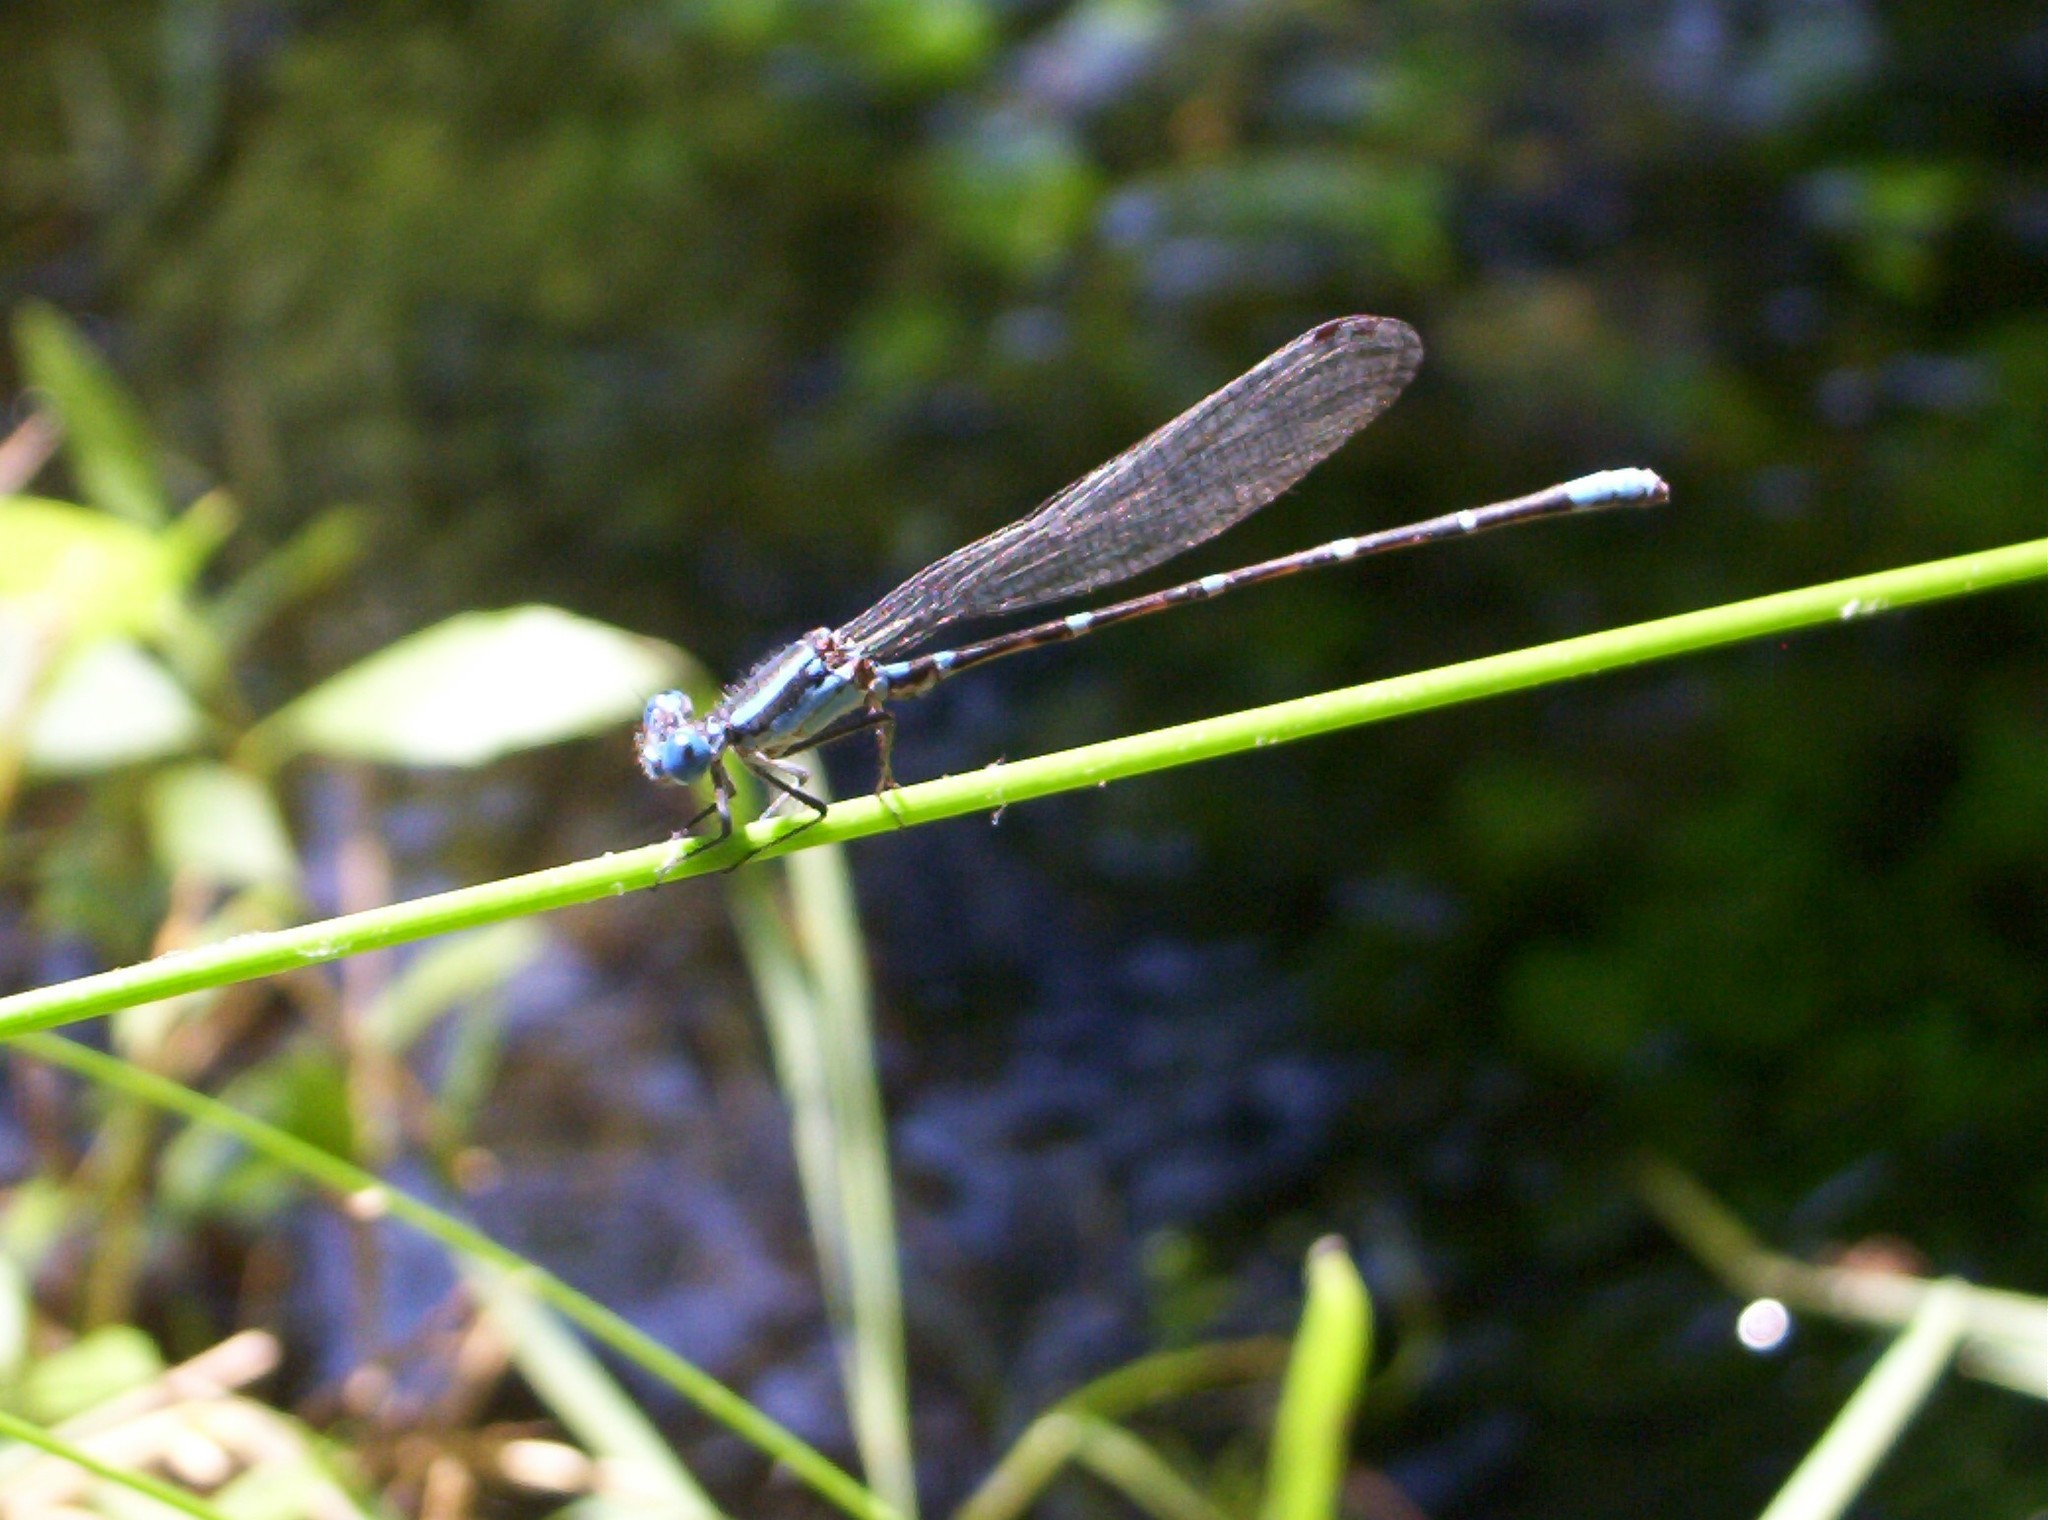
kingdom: Animalia
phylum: Arthropoda
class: Insecta
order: Odonata
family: Coenagrionidae
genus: Argia
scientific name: Argia sedula
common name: Blue-ringed dancer
